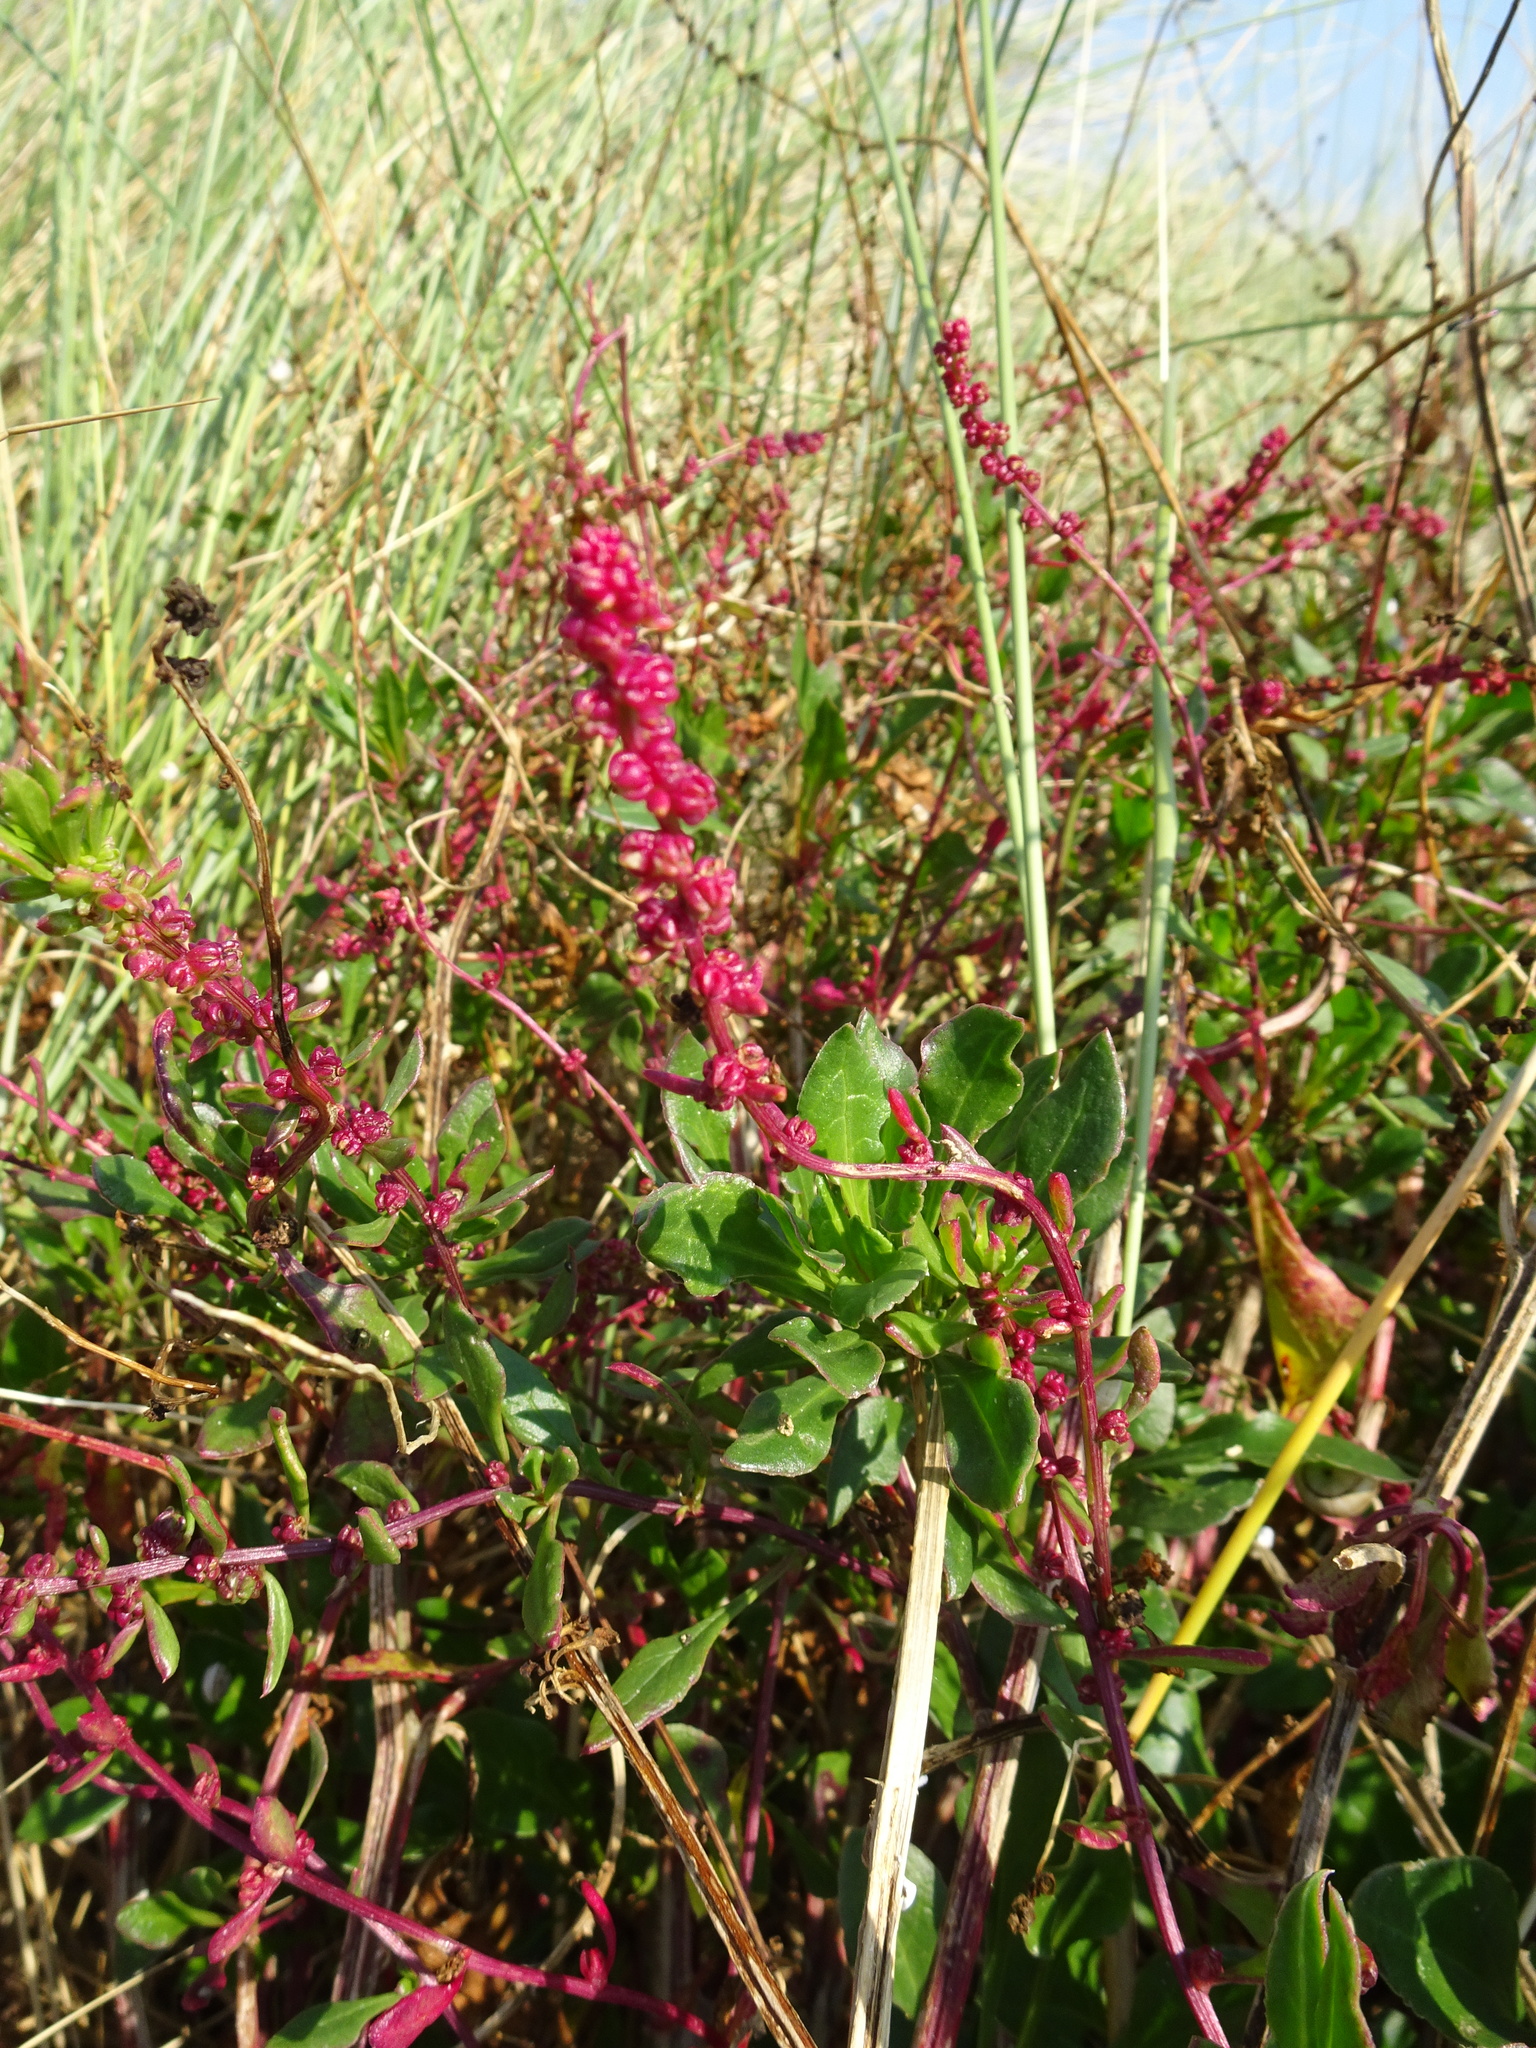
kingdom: Plantae
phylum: Tracheophyta
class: Magnoliopsida
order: Caryophyllales
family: Amaranthaceae
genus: Beta
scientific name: Beta vulgaris
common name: Beet
